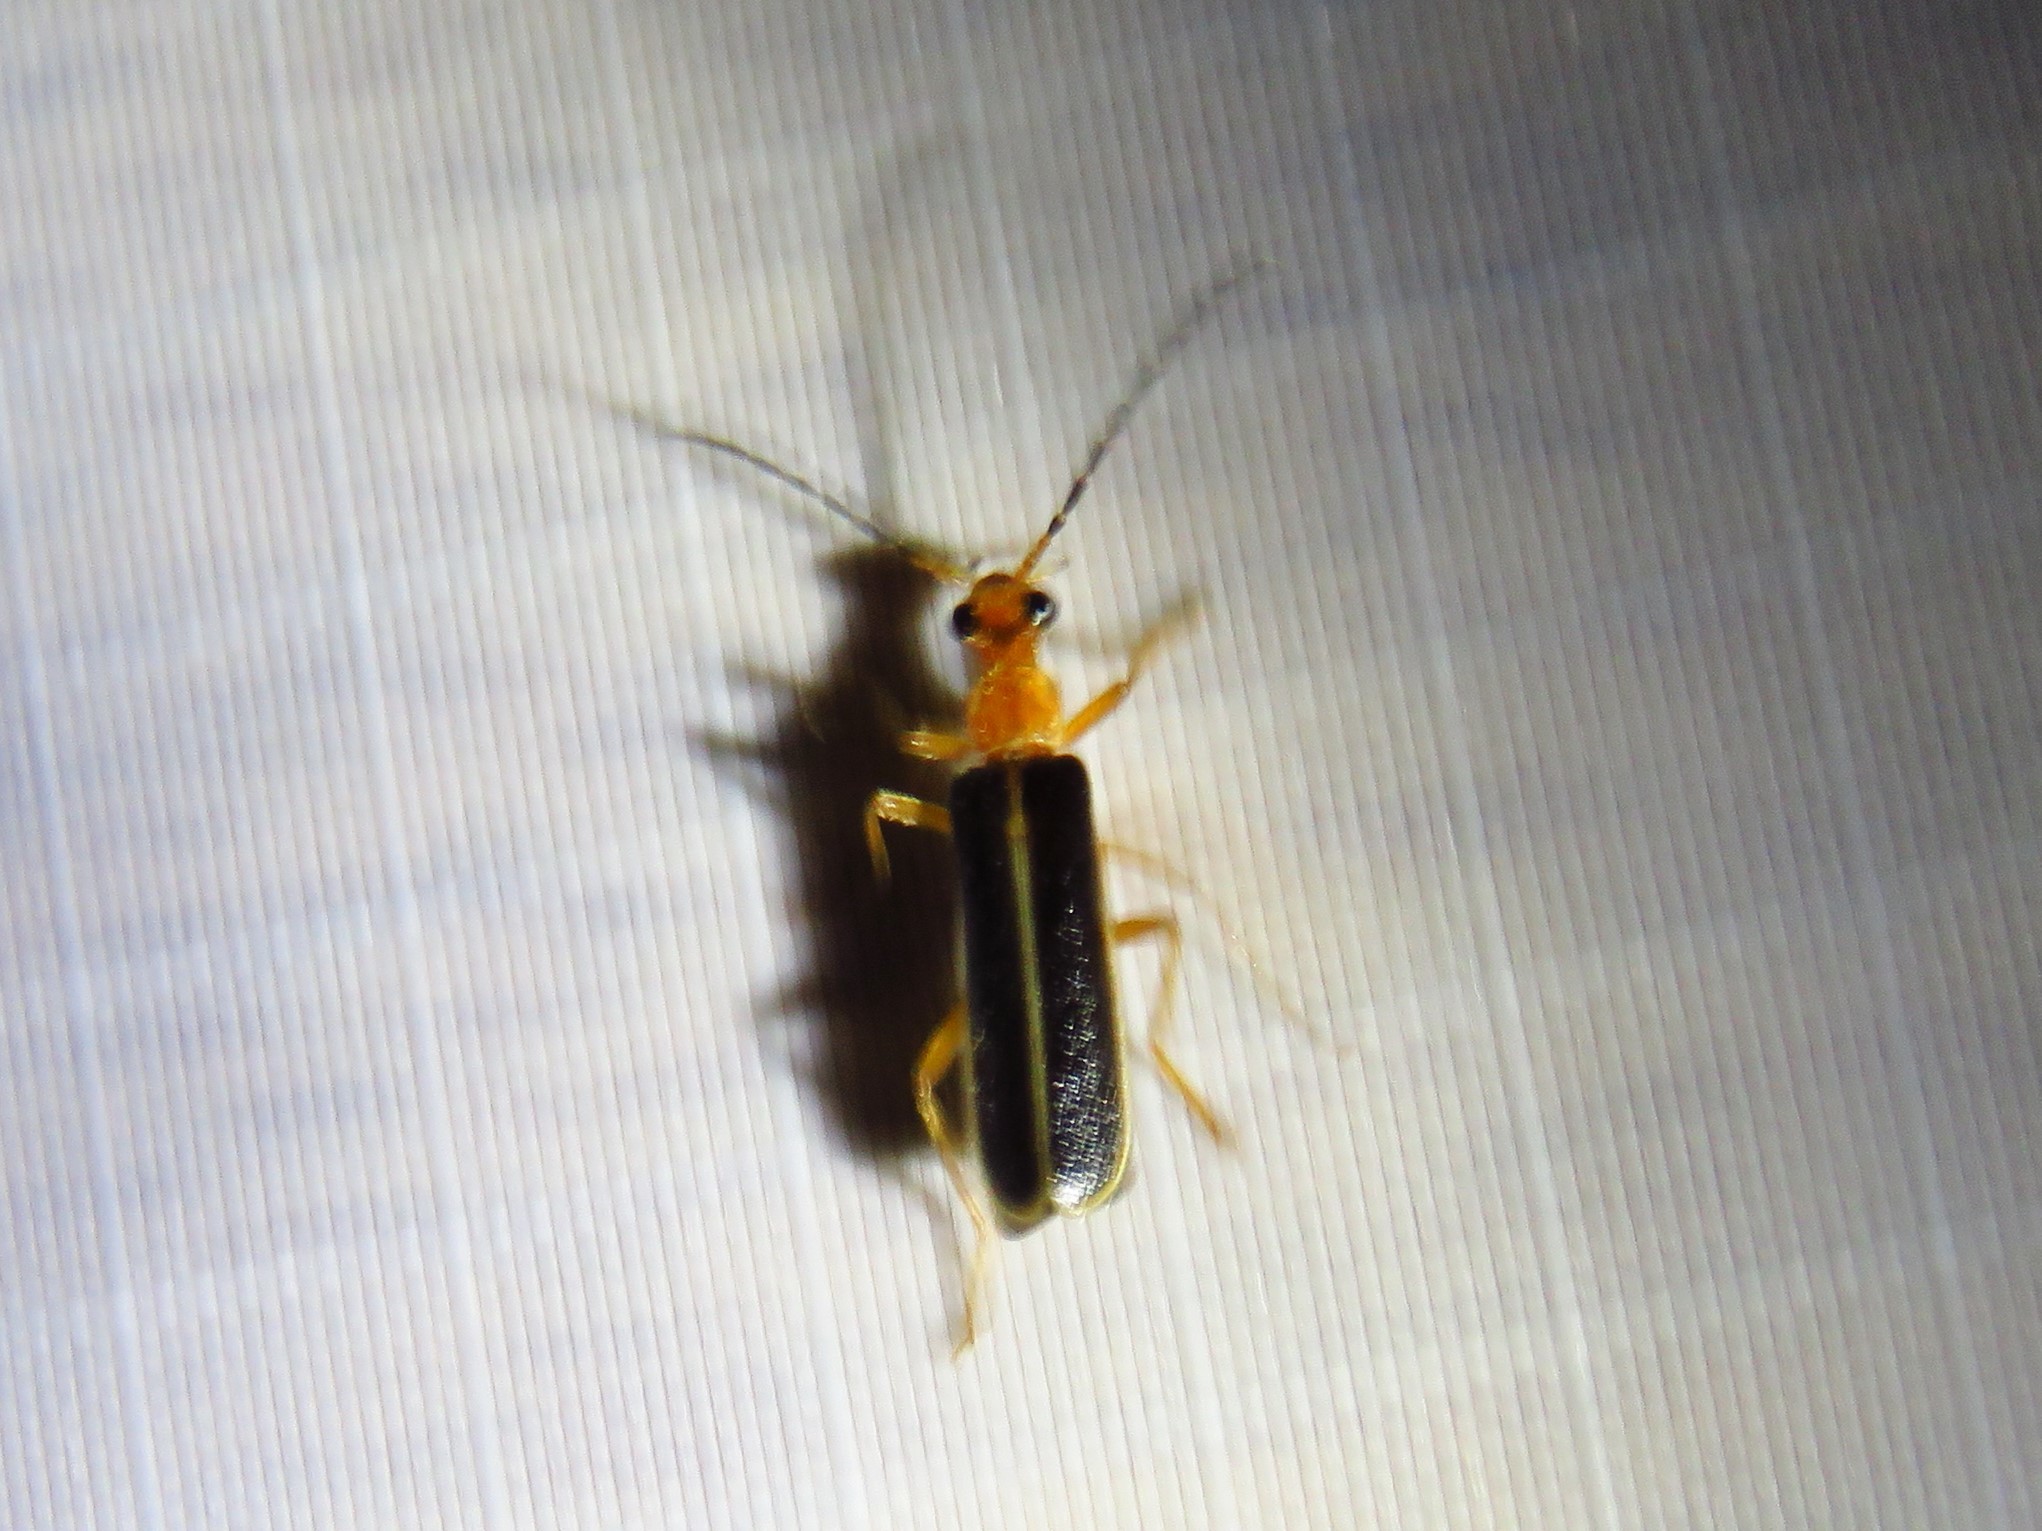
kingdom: Animalia
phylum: Arthropoda
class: Insecta
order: Coleoptera
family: Cantharidae
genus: Podabrus
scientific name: Podabrus dreisbachi
